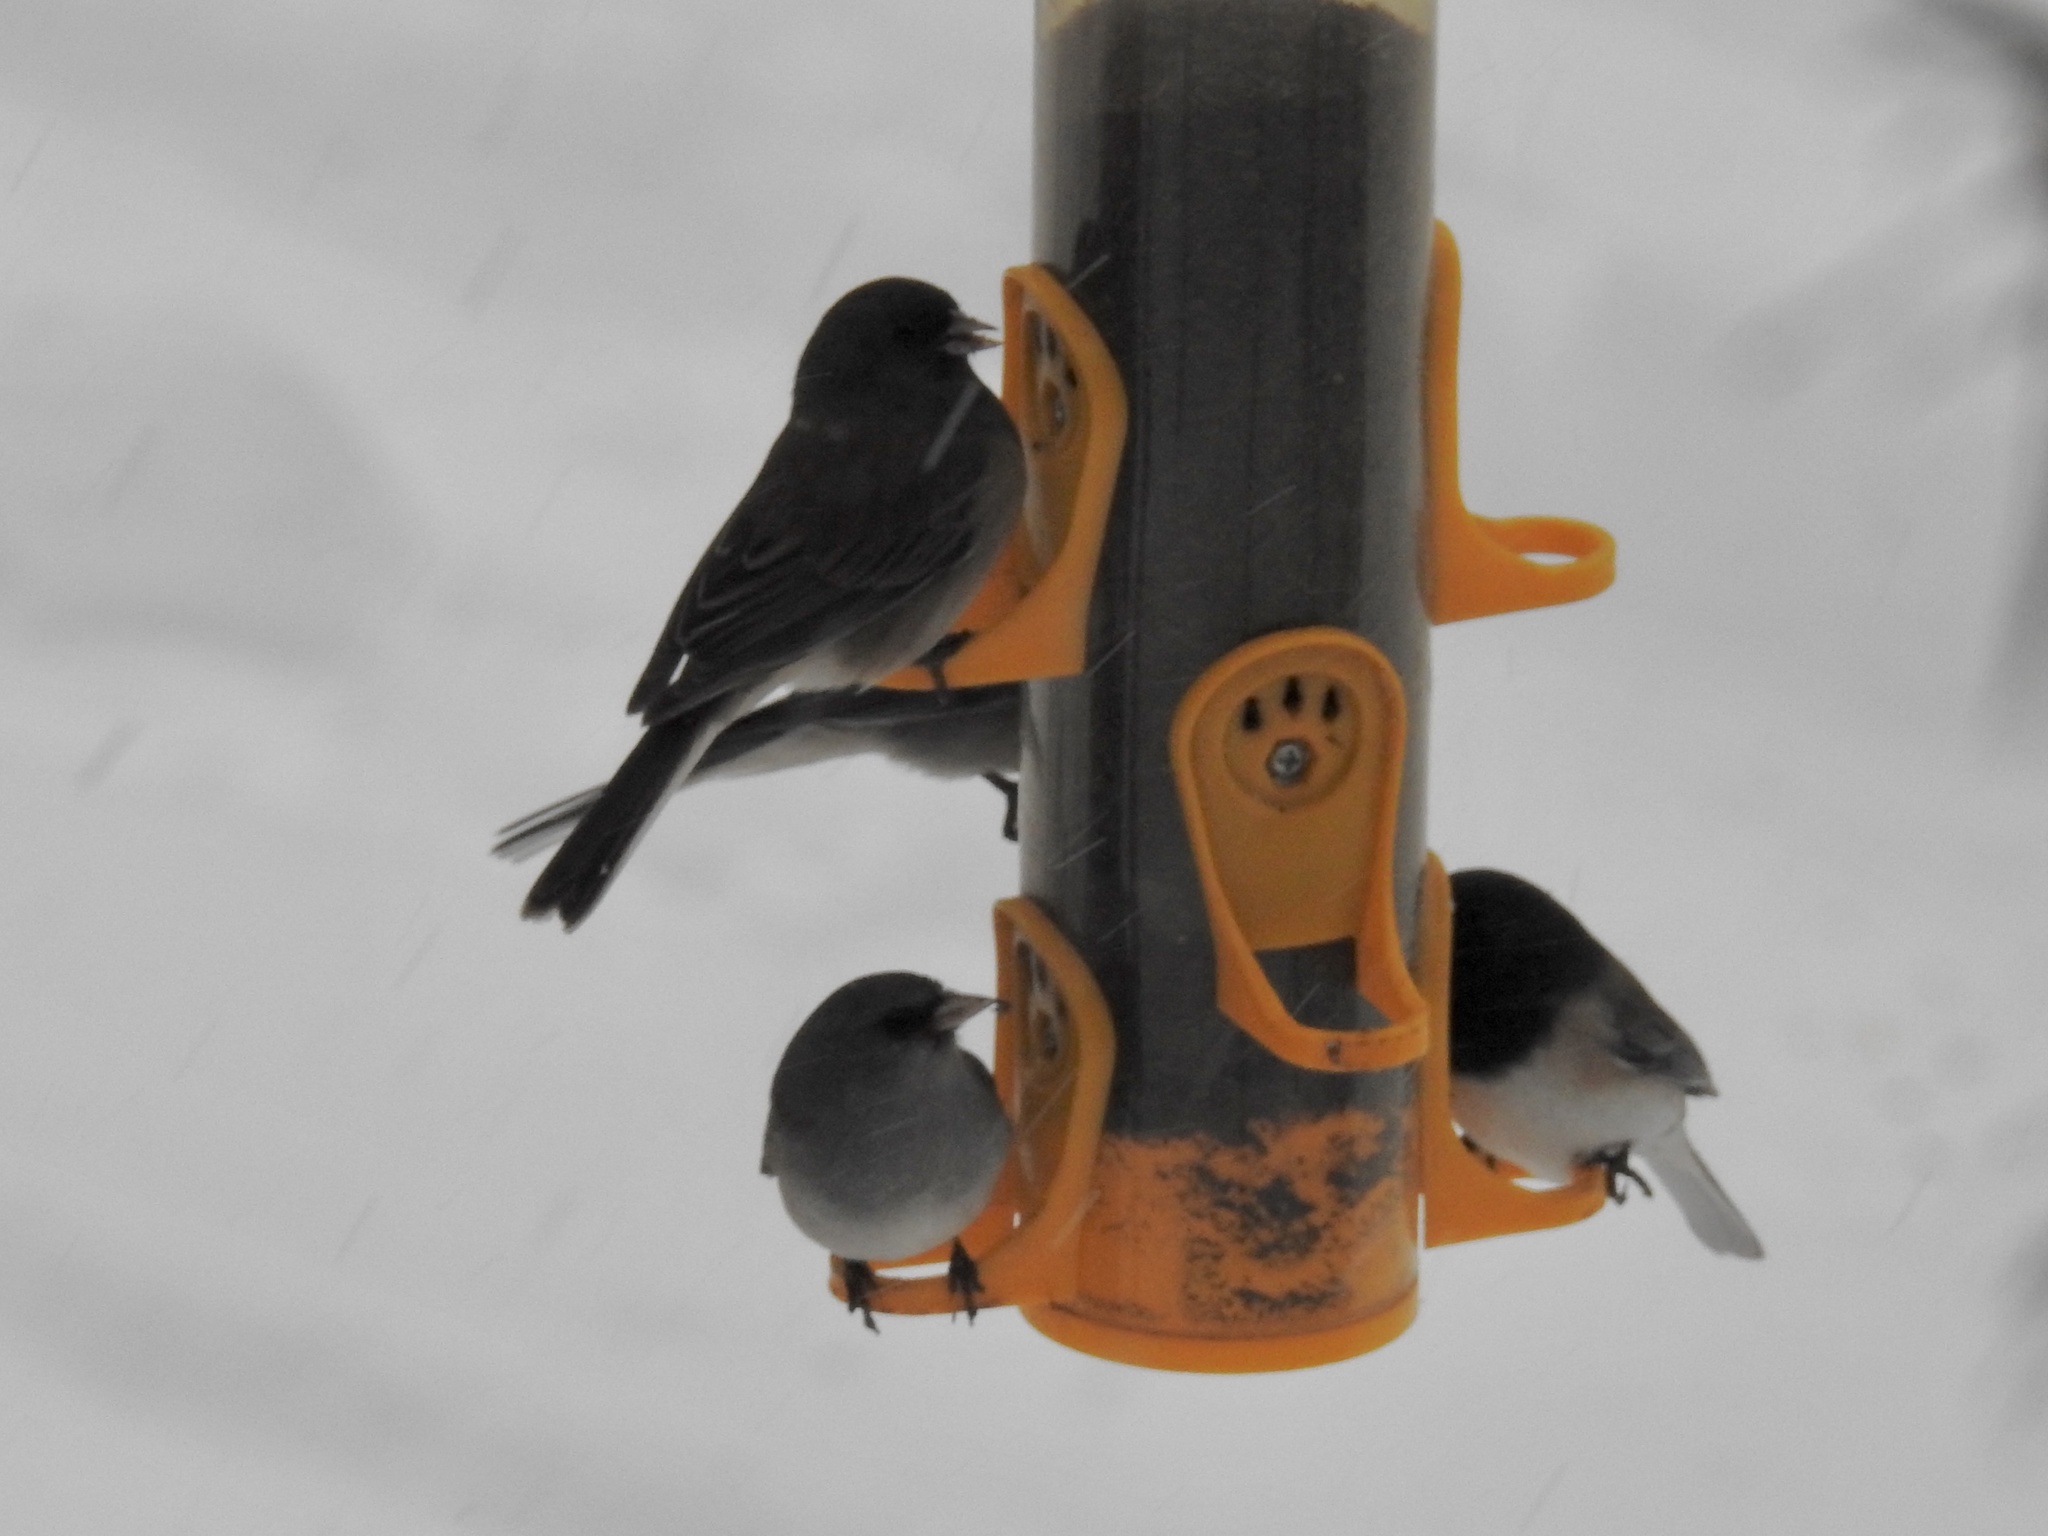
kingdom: Animalia
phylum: Chordata
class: Aves
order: Passeriformes
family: Passerellidae
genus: Junco
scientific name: Junco hyemalis
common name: Dark-eyed junco
